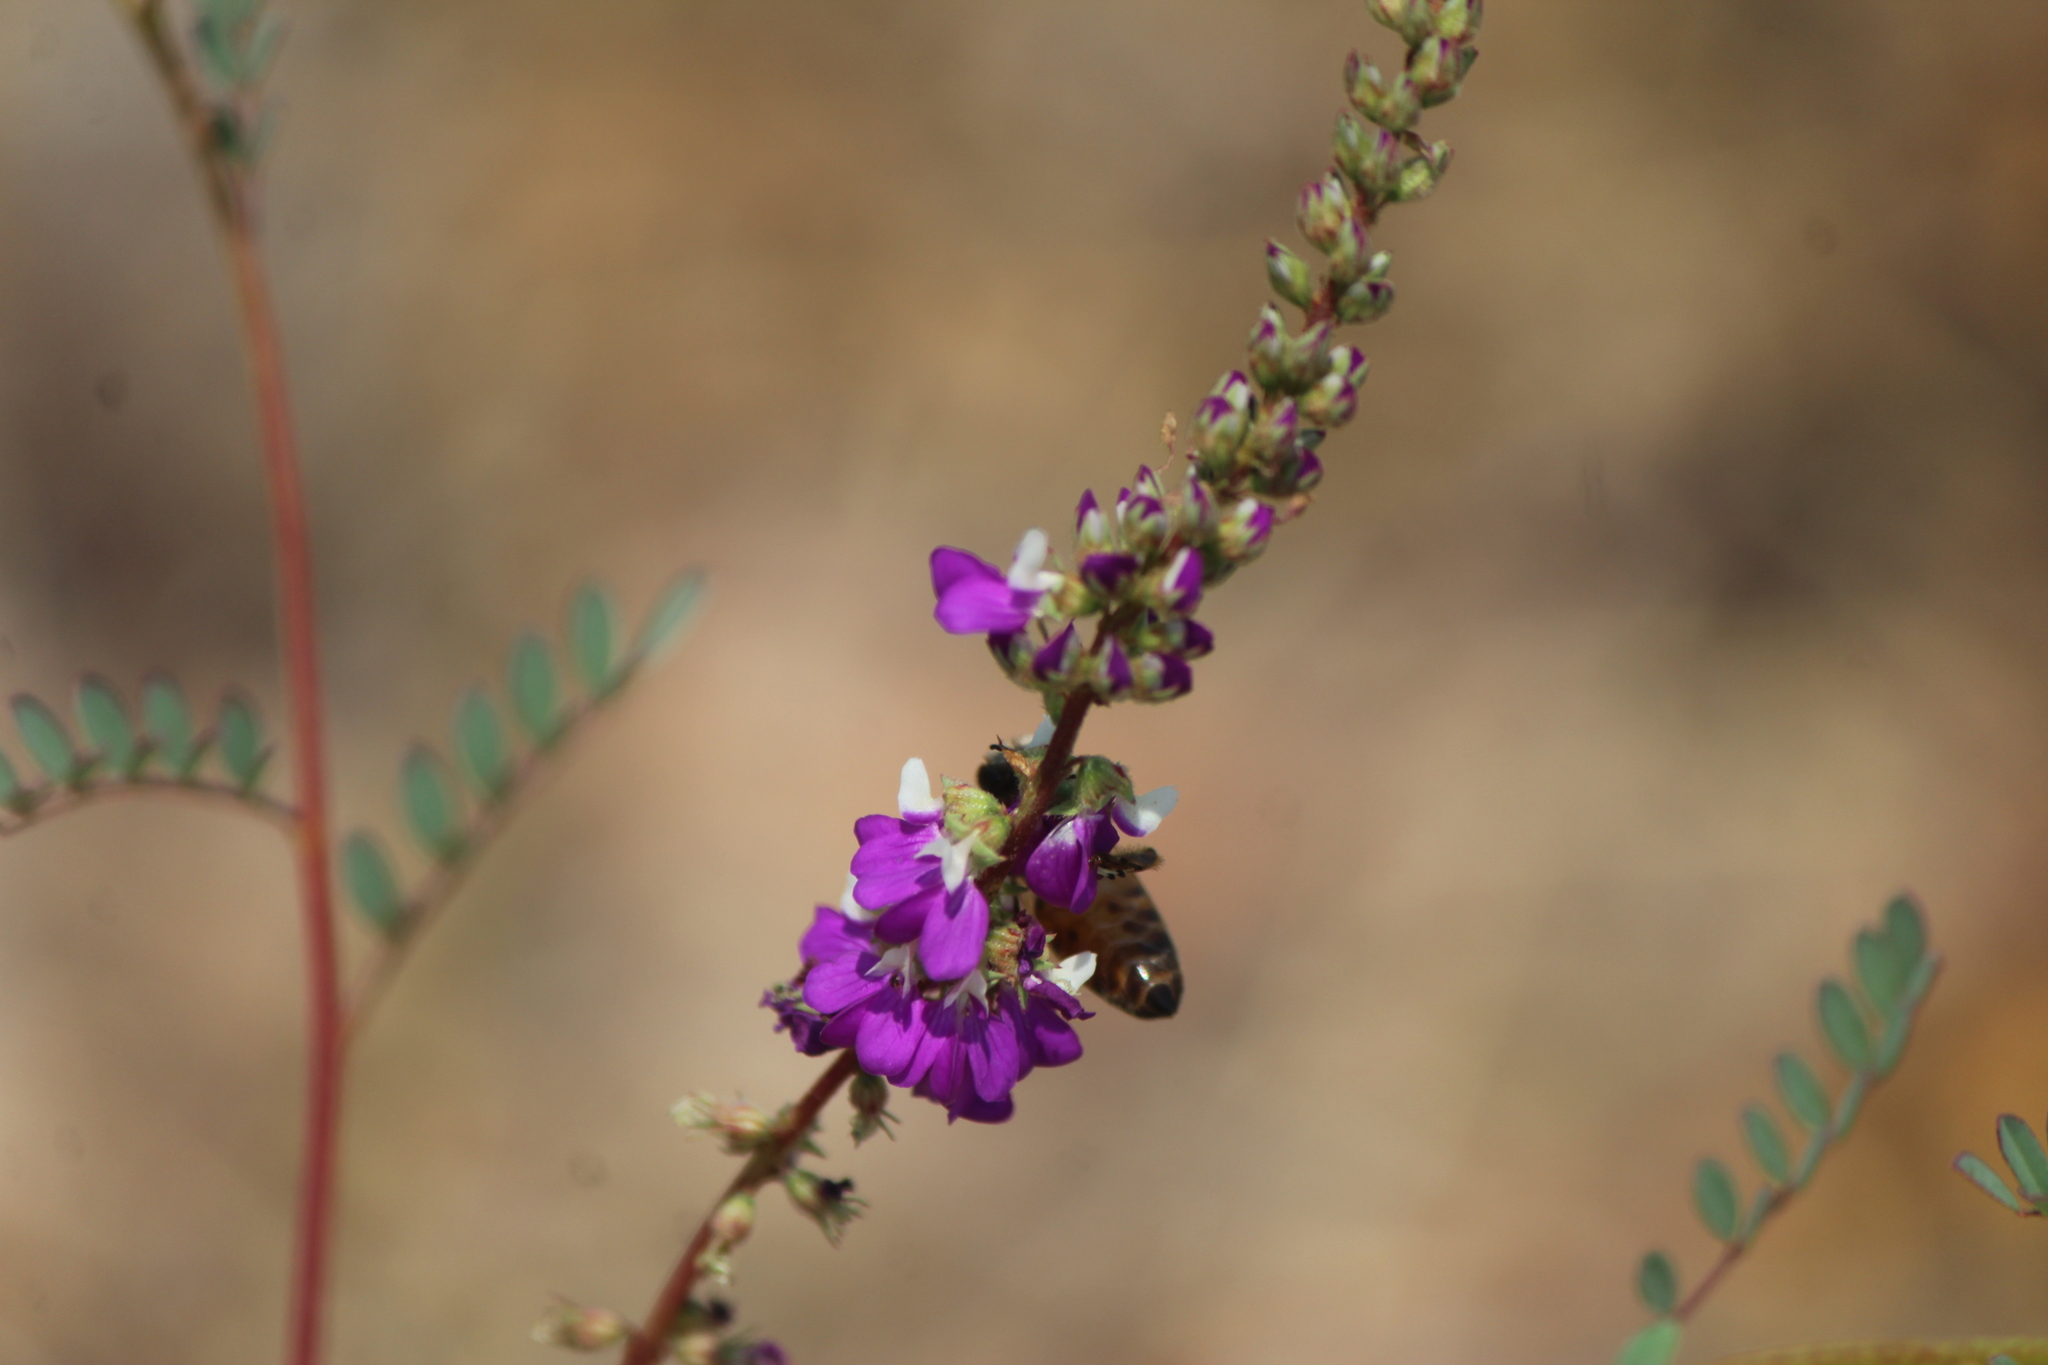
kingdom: Plantae
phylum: Tracheophyta
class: Magnoliopsida
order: Fabales
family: Fabaceae
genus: Dalea
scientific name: Dalea bicolor
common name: Silver prairie-clover
